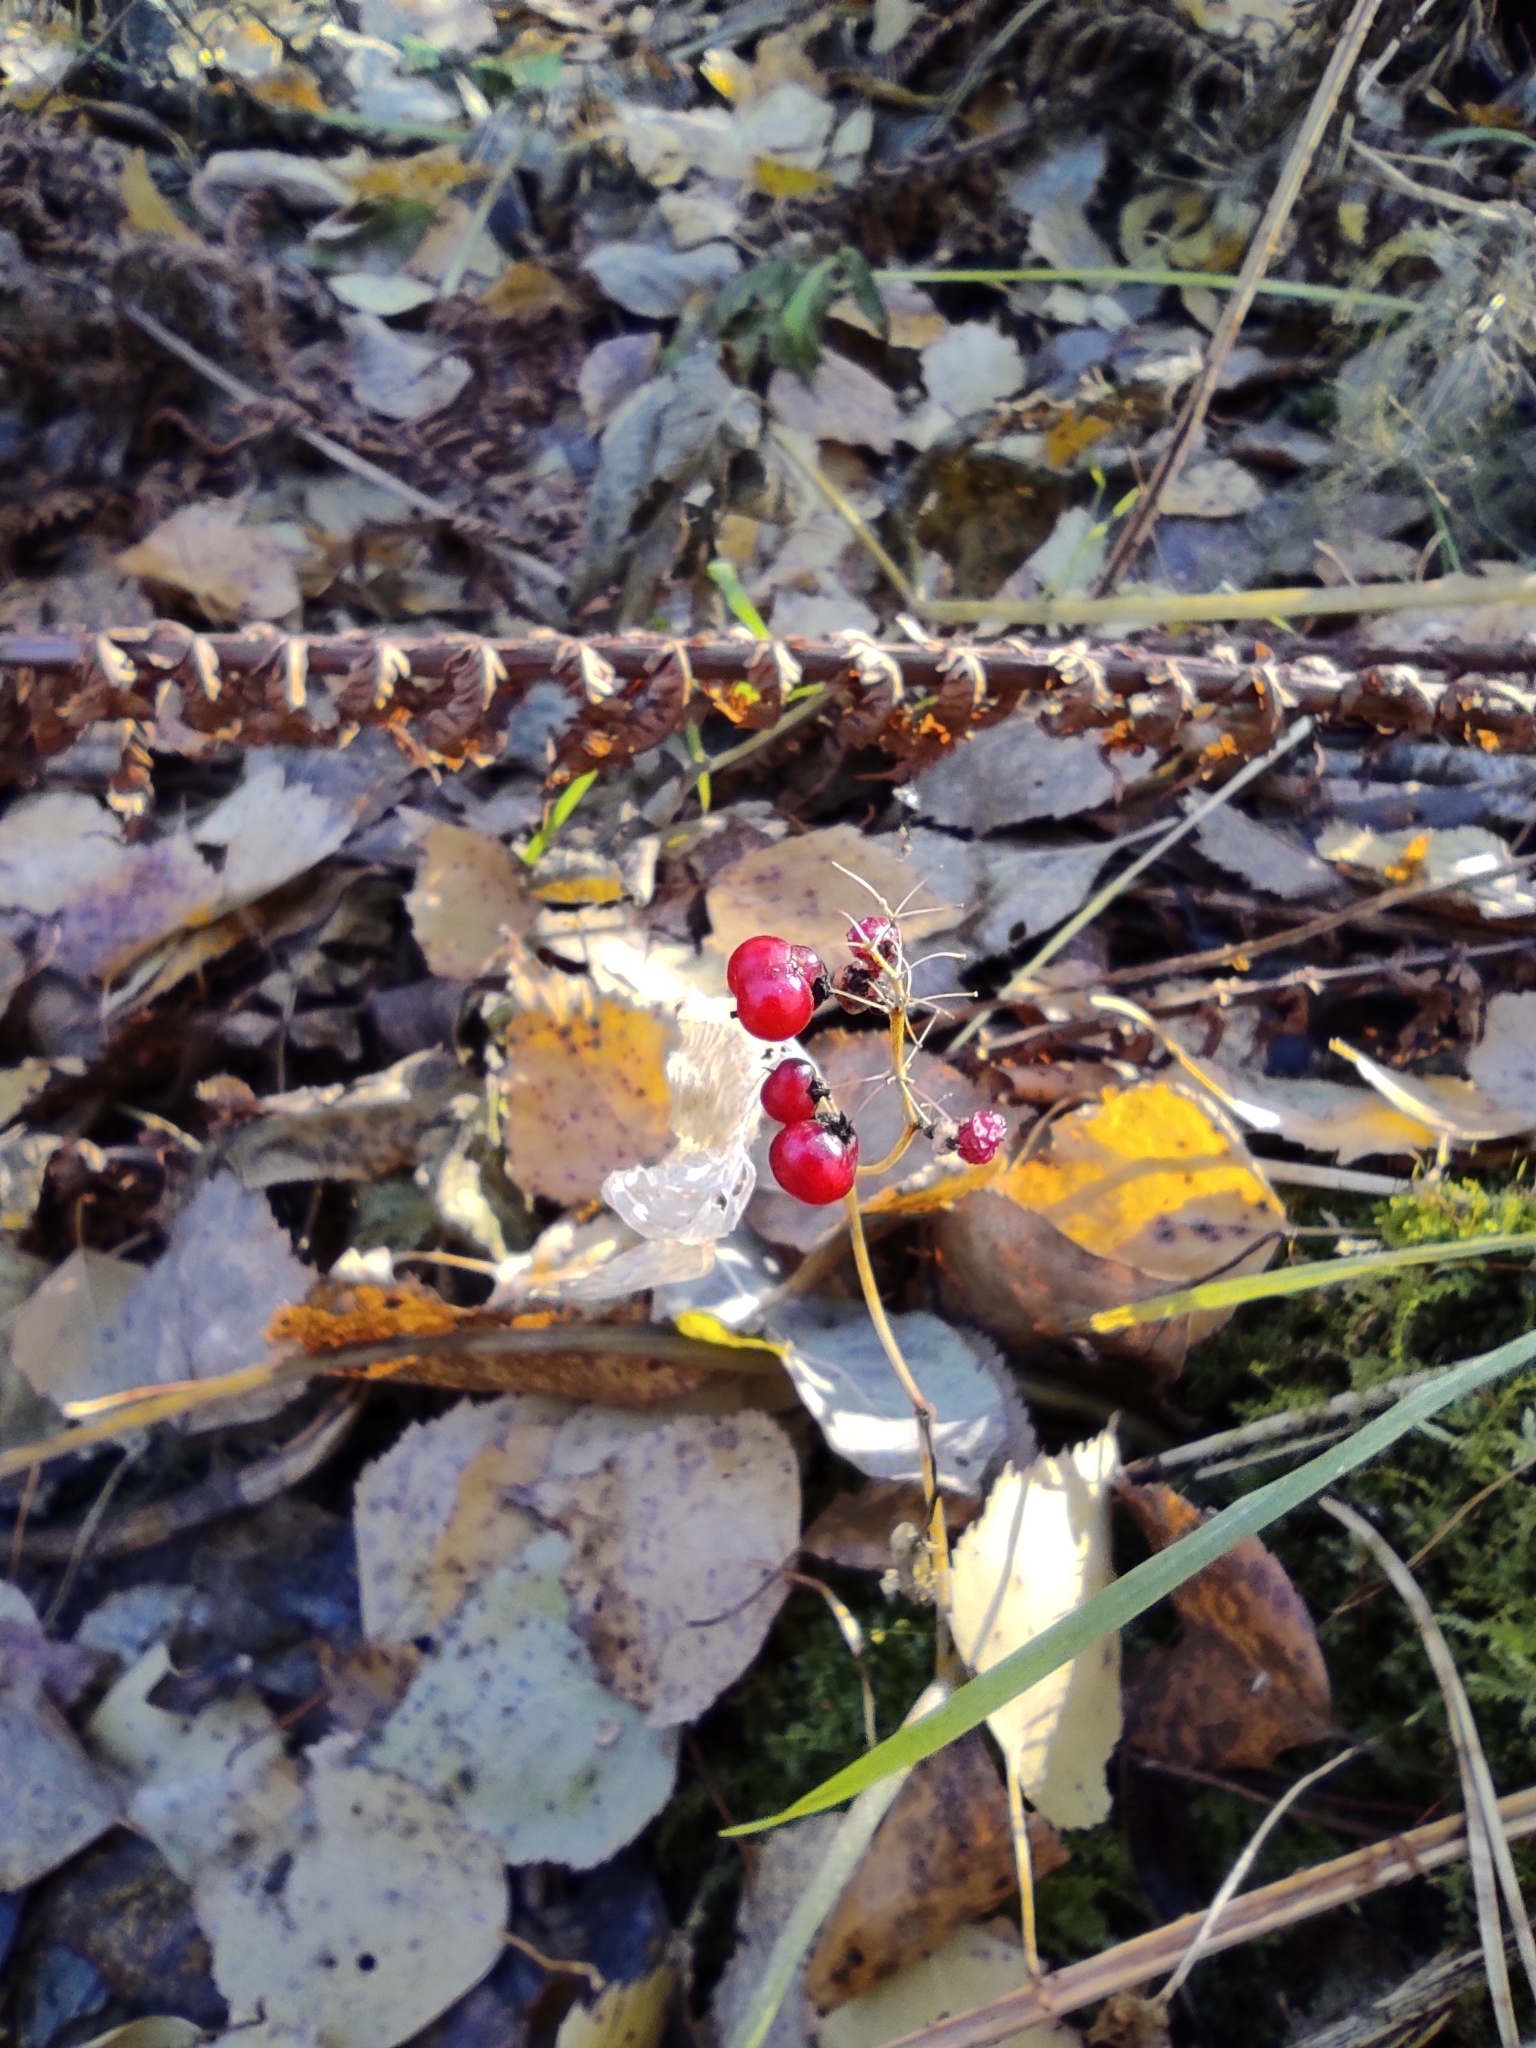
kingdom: Plantae
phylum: Tracheophyta
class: Liliopsida
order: Asparagales
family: Asparagaceae
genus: Maianthemum
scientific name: Maianthemum bifolium
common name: May lily
